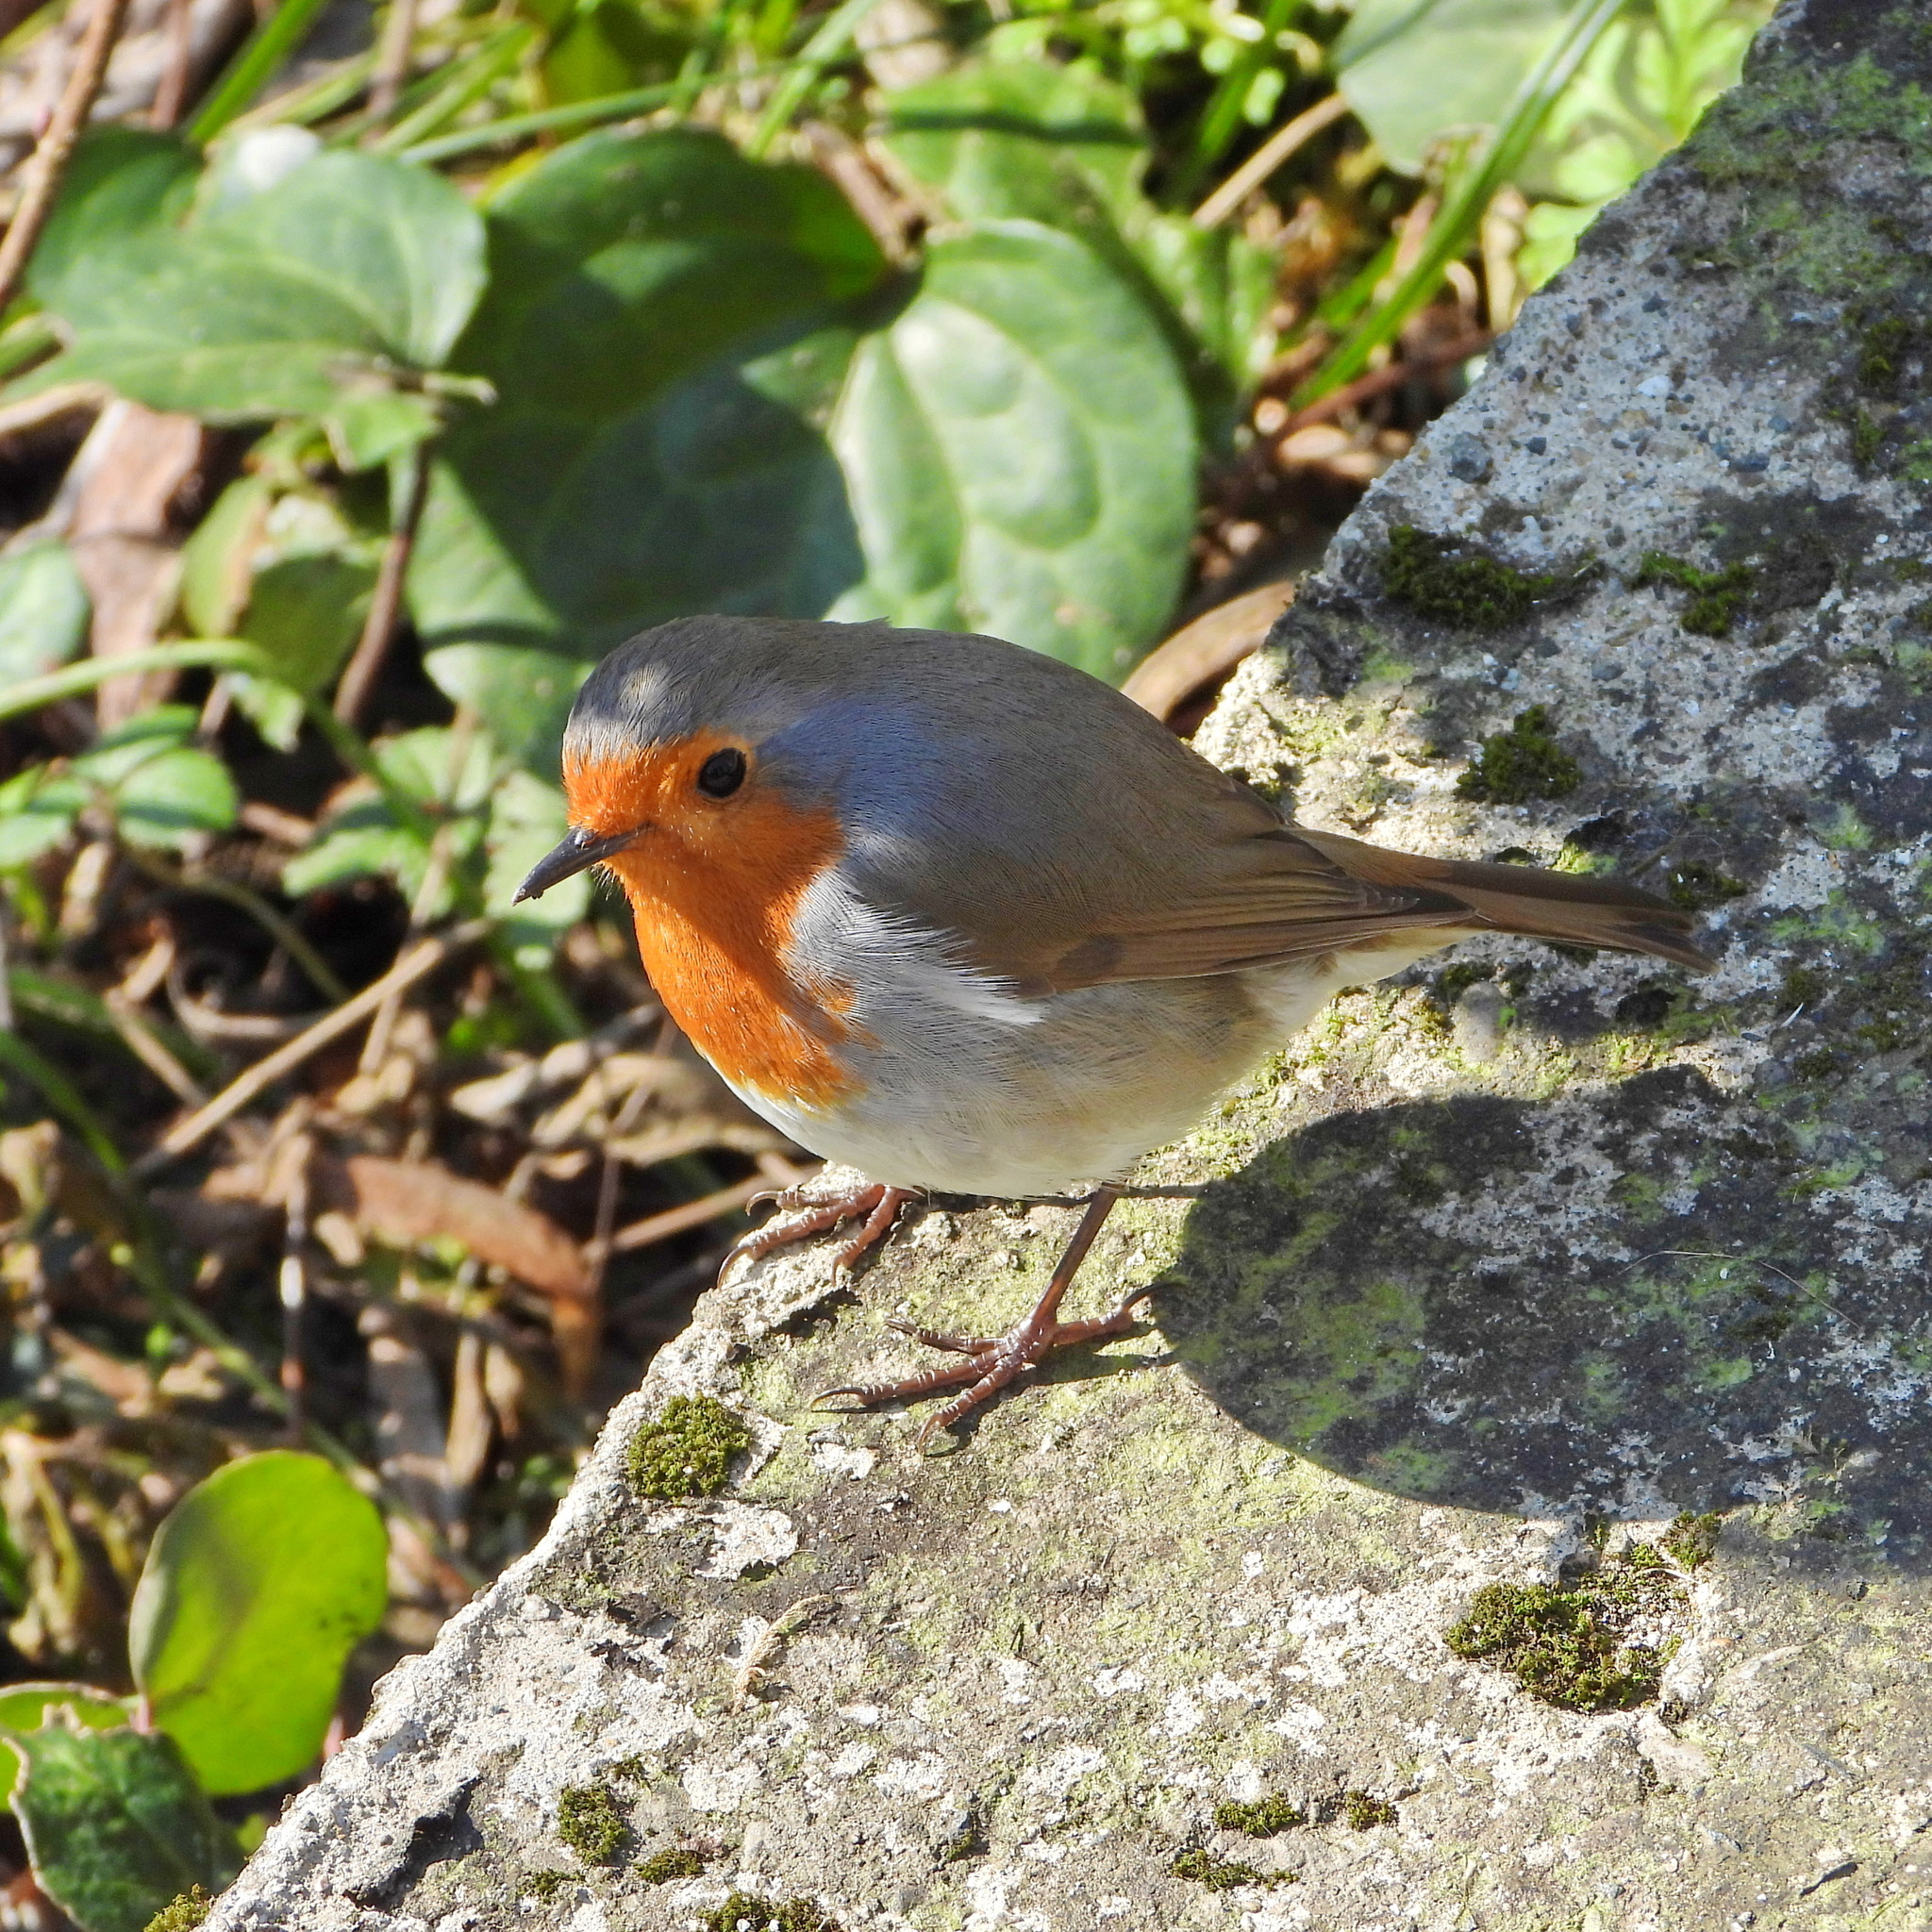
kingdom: Animalia
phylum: Chordata
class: Aves
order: Passeriformes
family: Muscicapidae
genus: Erithacus
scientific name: Erithacus rubecula
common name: European robin
